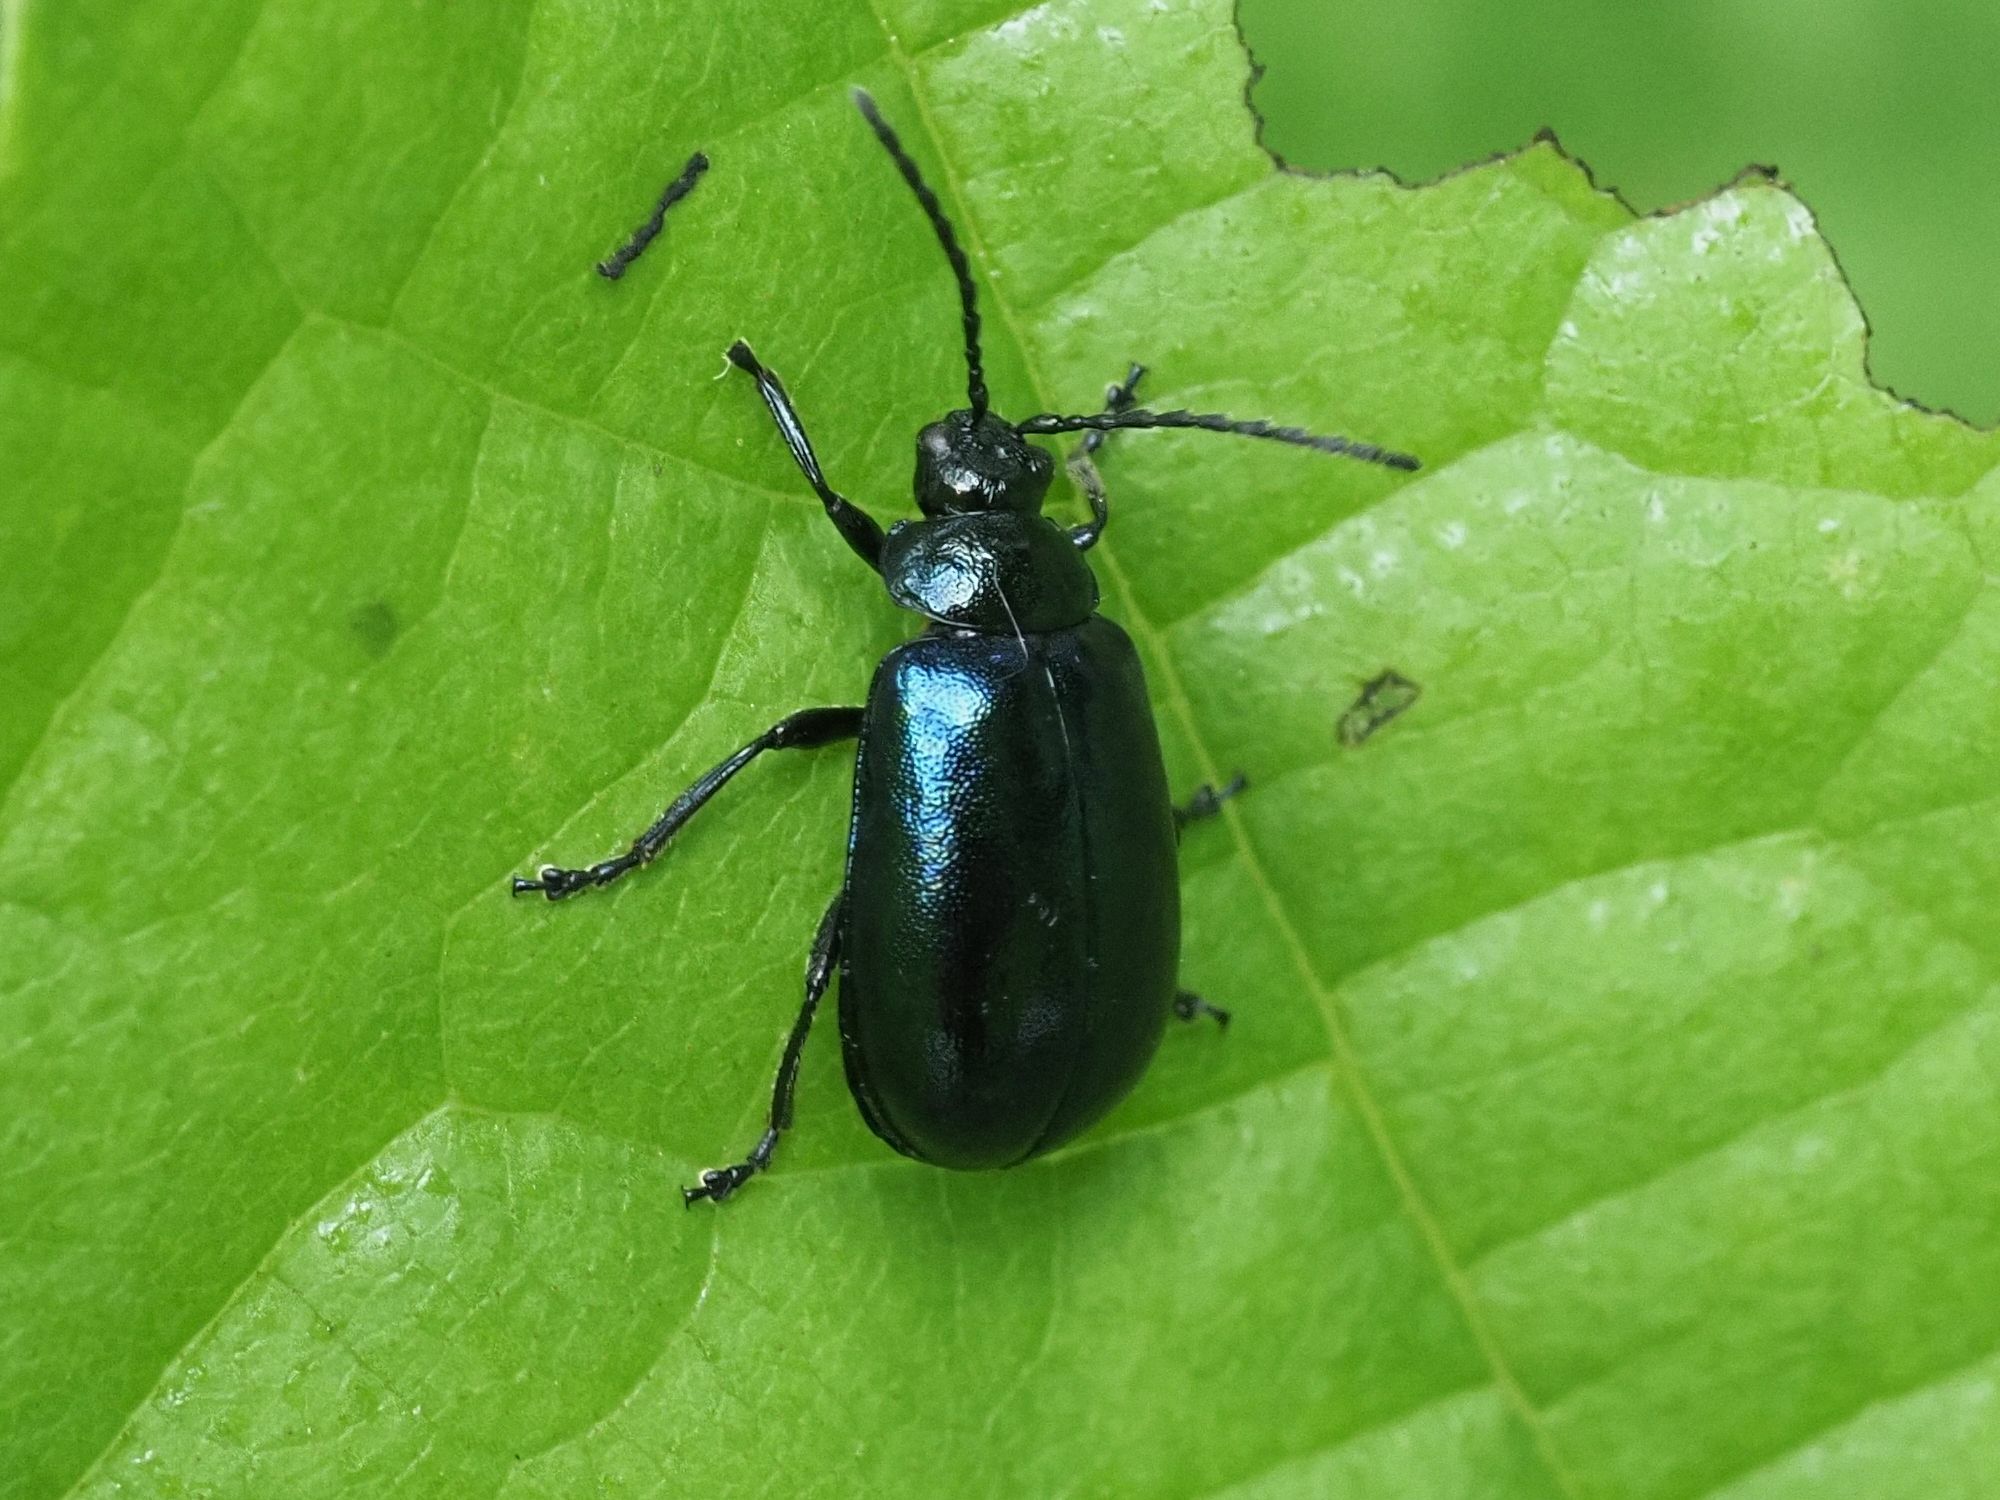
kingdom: Animalia
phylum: Arthropoda
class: Insecta
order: Coleoptera
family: Chrysomelidae
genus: Agelastica
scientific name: Agelastica alni
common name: Alder leaf beetle
